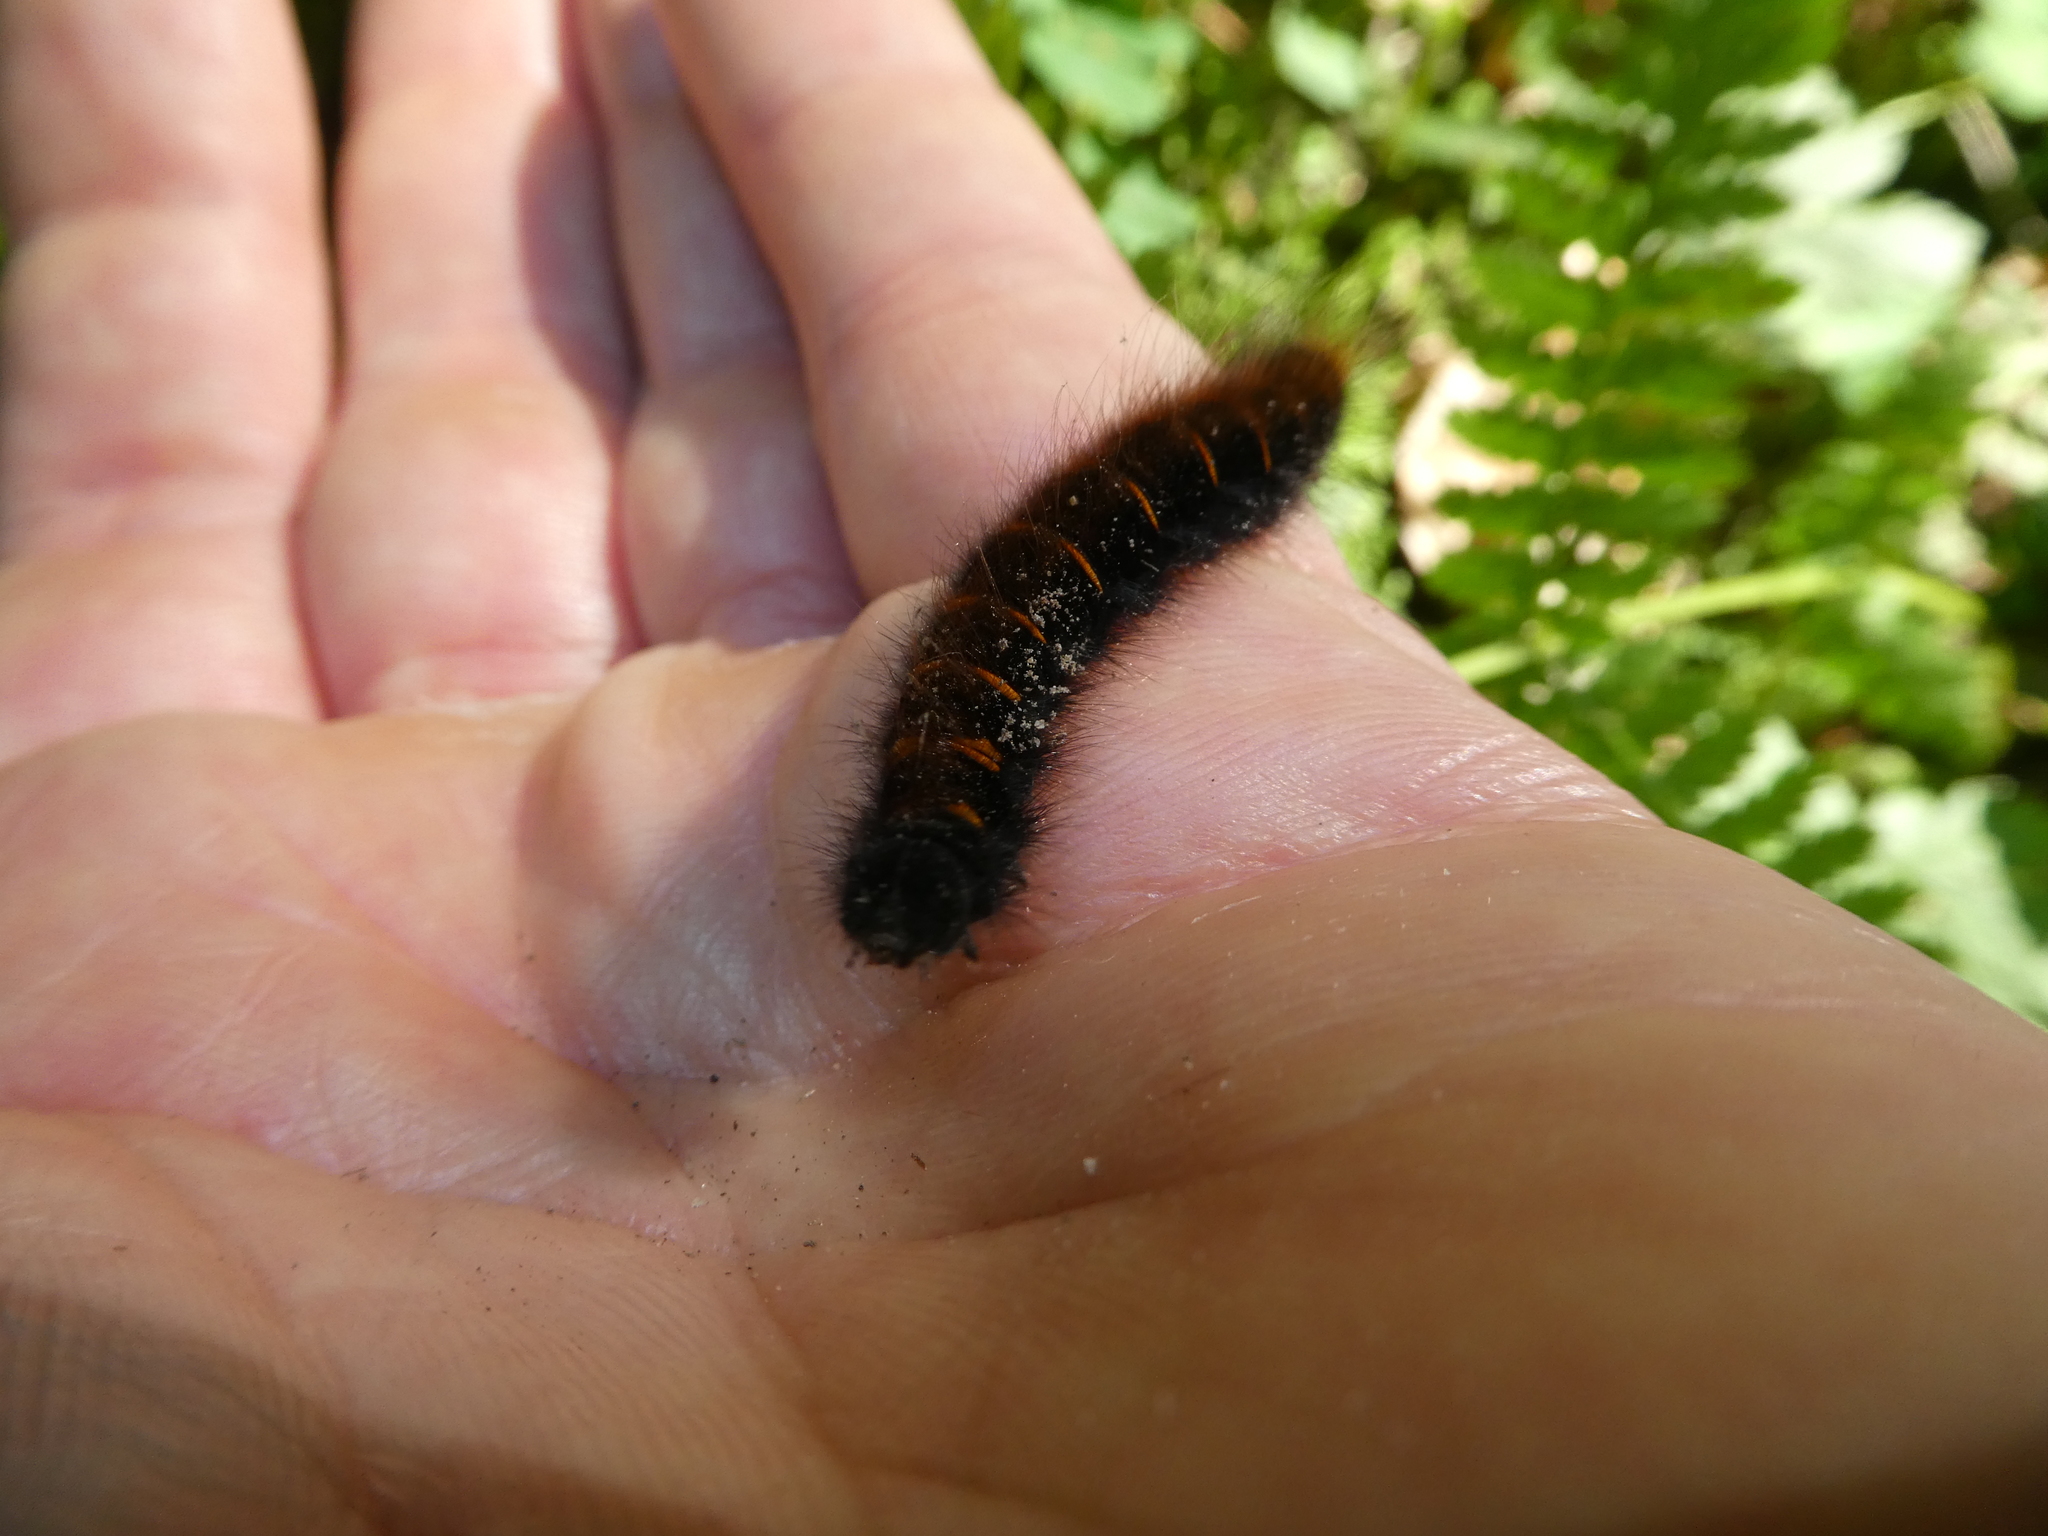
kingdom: Animalia
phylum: Arthropoda
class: Insecta
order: Lepidoptera
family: Lasiocampidae
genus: Macrothylacia
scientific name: Macrothylacia rubi
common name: Fox moth
